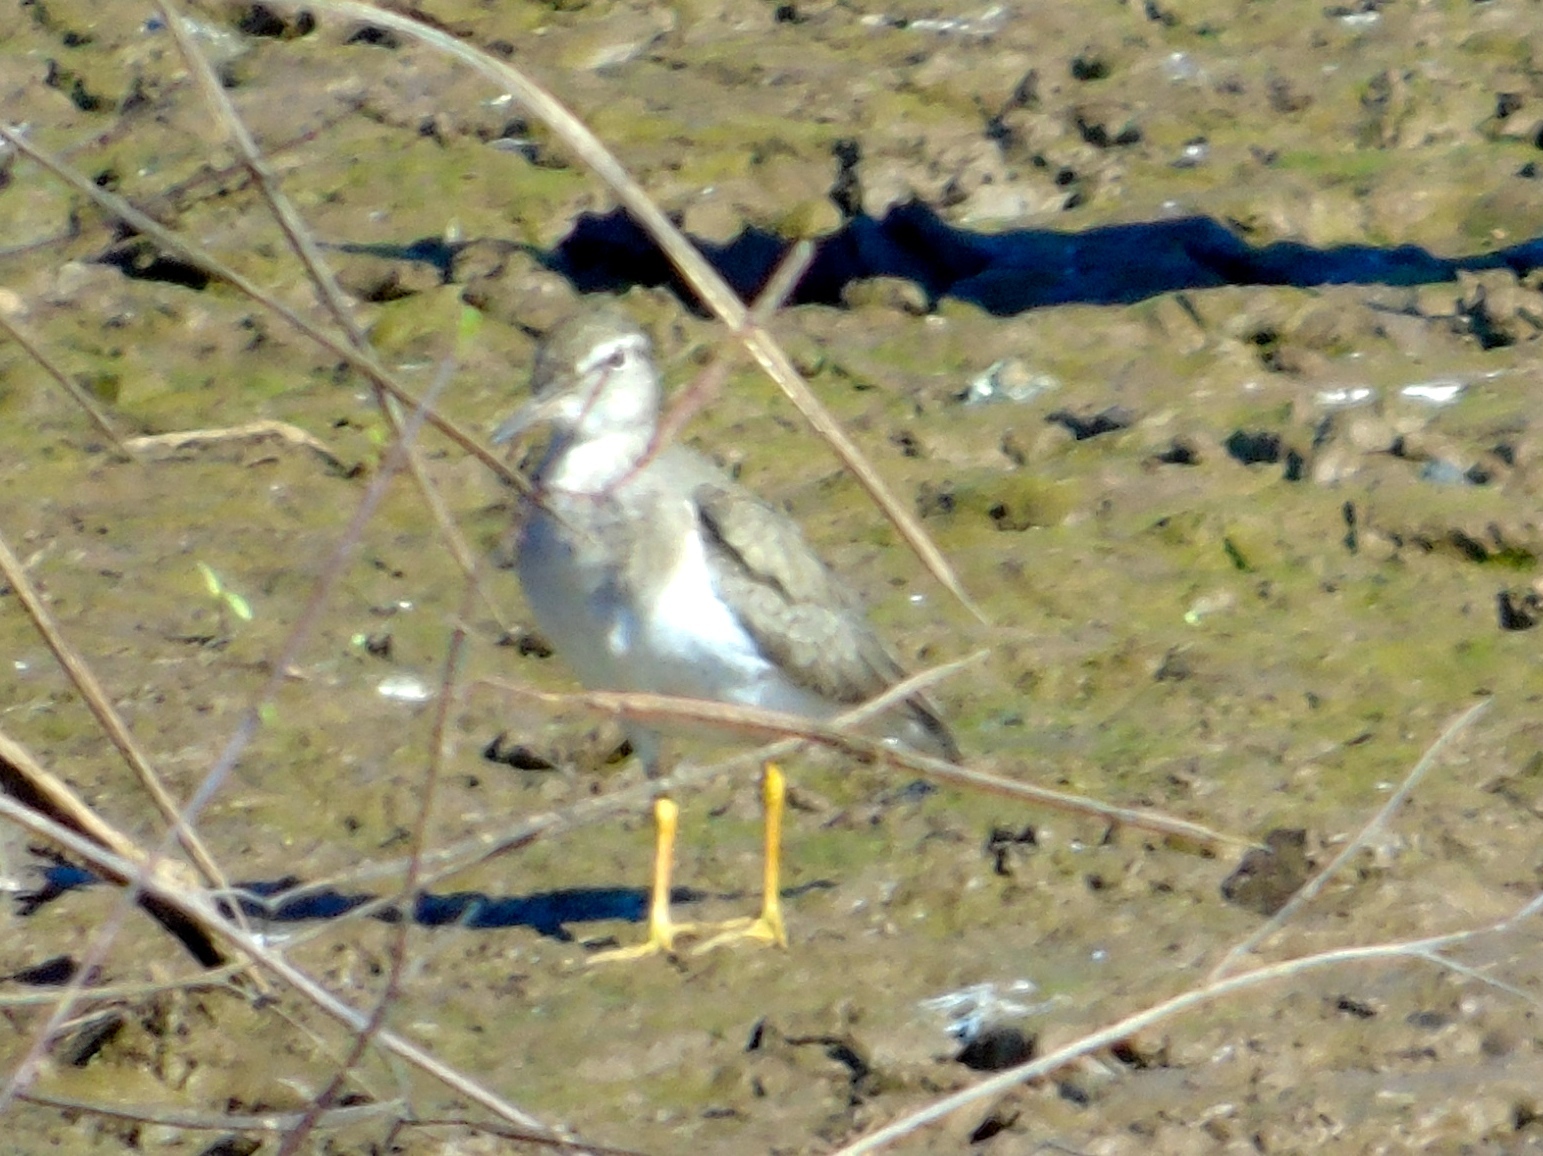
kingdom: Animalia
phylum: Chordata
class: Aves
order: Charadriiformes
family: Scolopacidae
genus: Actitis
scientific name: Actitis macularius
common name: Spotted sandpiper
